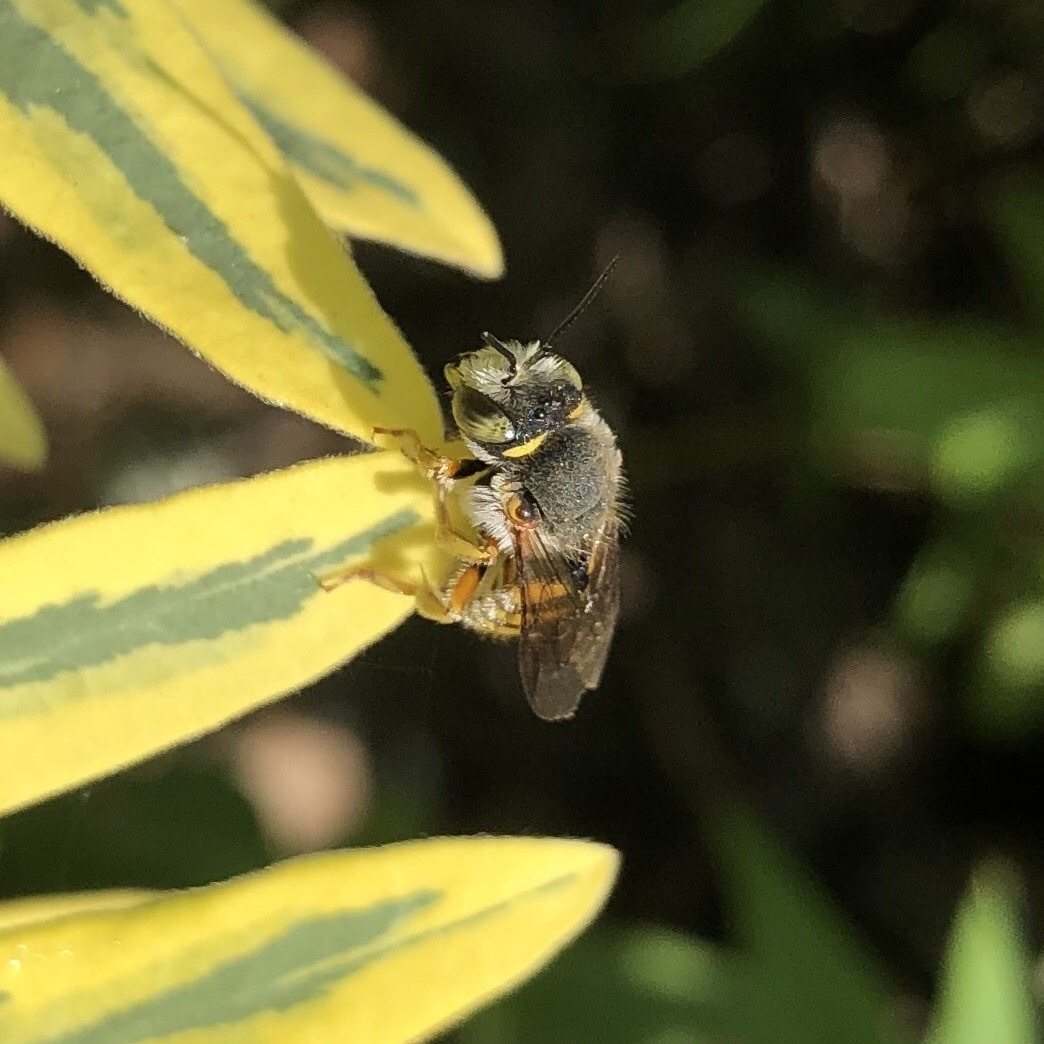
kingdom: Animalia
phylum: Arthropoda
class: Insecta
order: Hymenoptera
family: Megachilidae
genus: Anthidium
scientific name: Anthidium oblongatum
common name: Oblong wool carder bee
